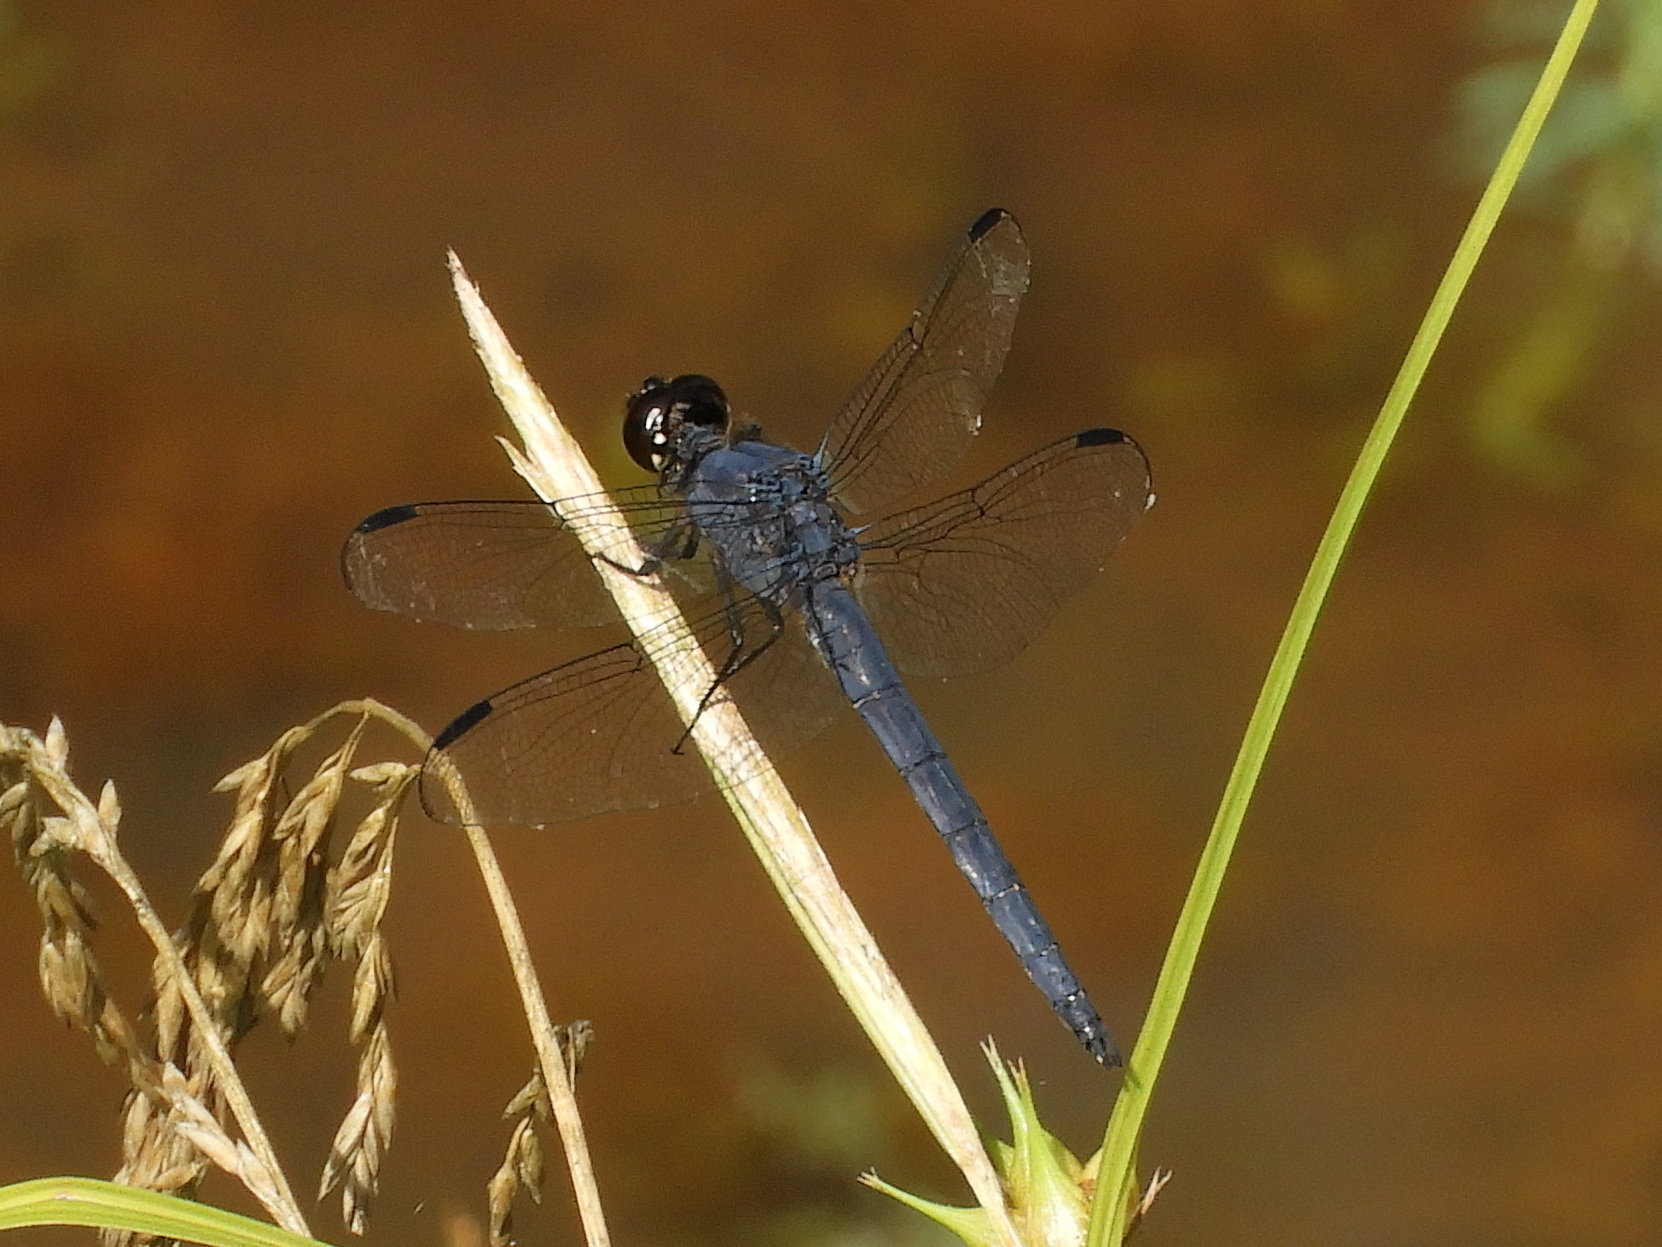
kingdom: Animalia
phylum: Arthropoda
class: Insecta
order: Odonata
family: Libellulidae
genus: Libellula
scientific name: Libellula incesta
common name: Slaty skimmer
